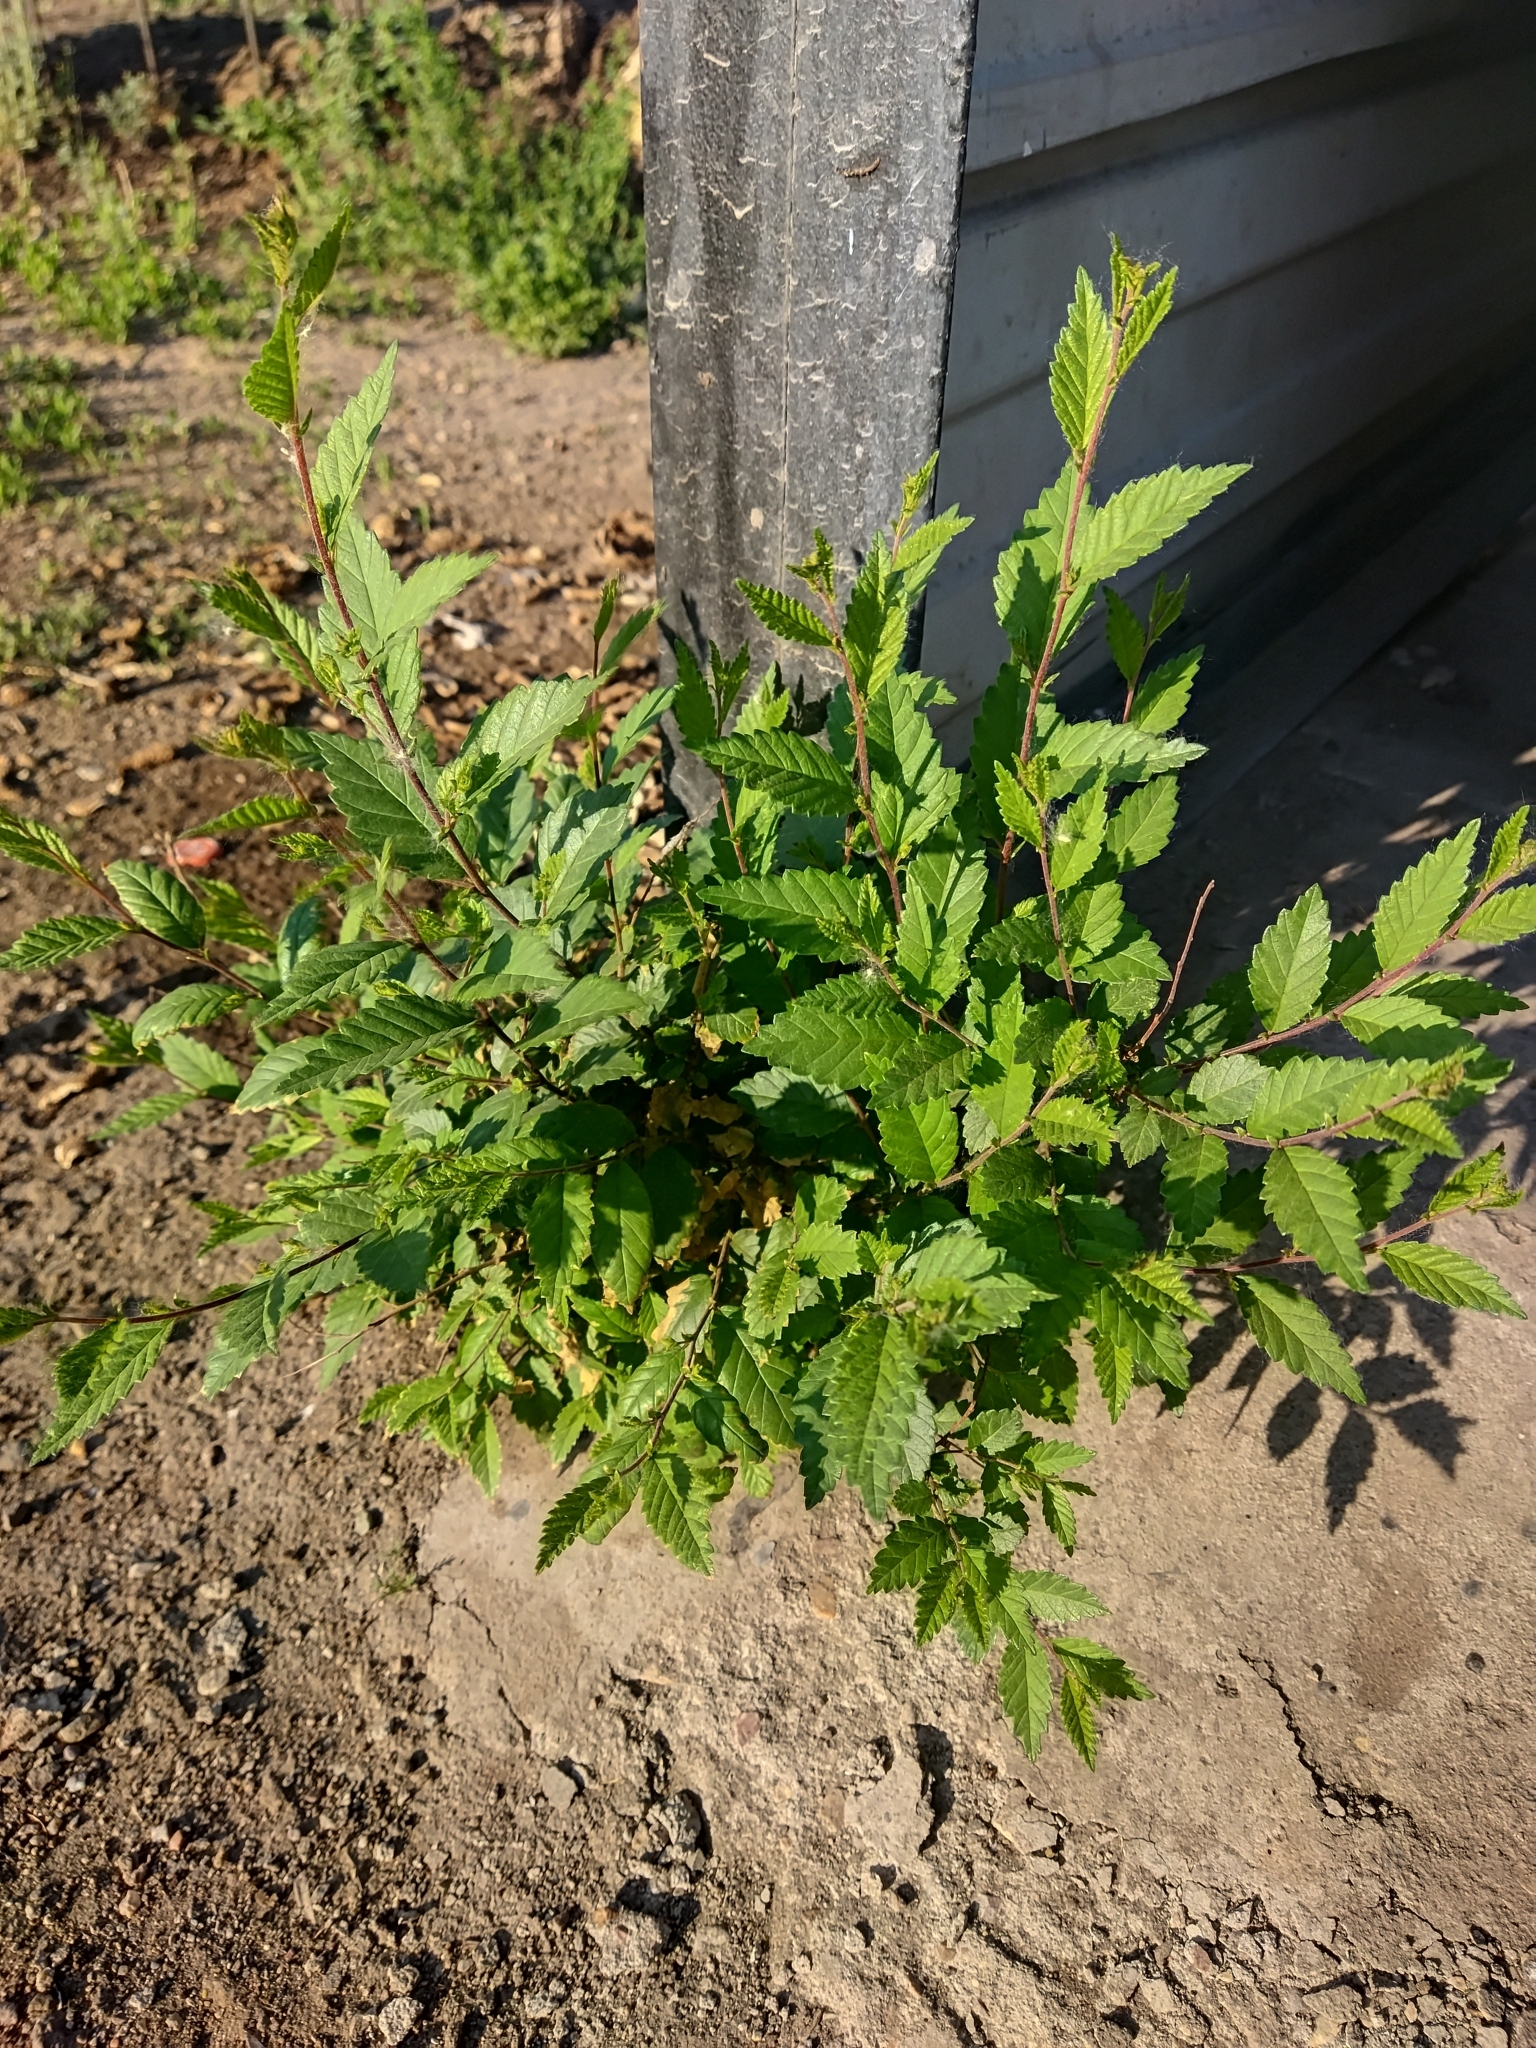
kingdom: Plantae
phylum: Tracheophyta
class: Magnoliopsida
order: Rosales
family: Ulmaceae
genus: Ulmus
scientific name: Ulmus pumila
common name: Siberian elm
